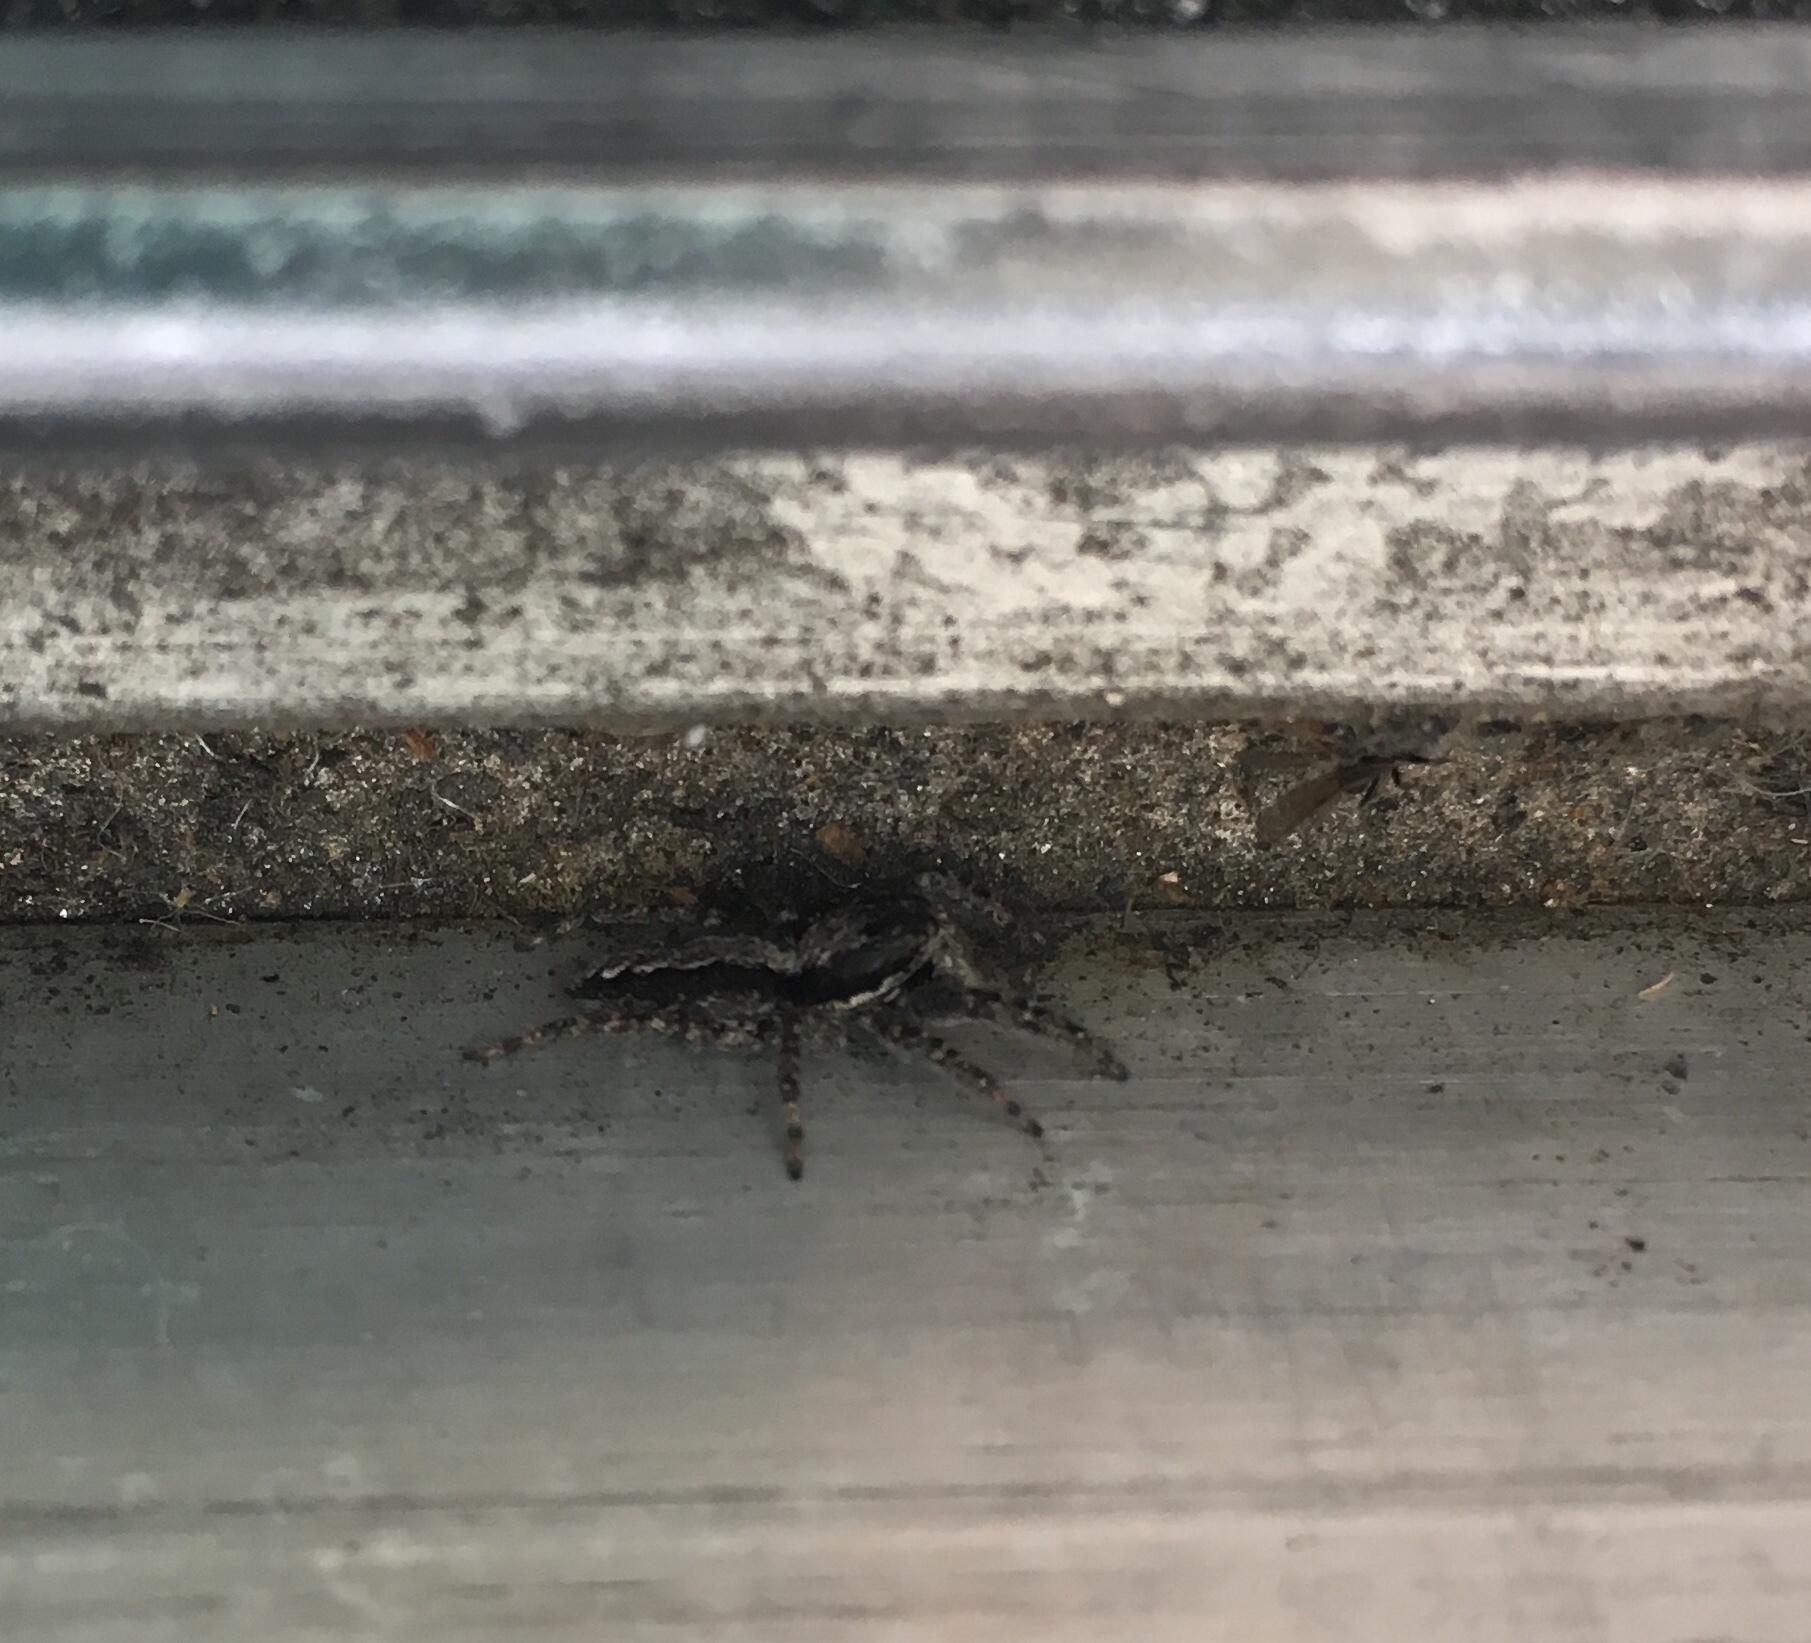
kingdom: Animalia
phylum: Arthropoda
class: Arachnida
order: Araneae
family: Salticidae
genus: Platycryptus
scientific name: Platycryptus californicus
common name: Jumping spiders
